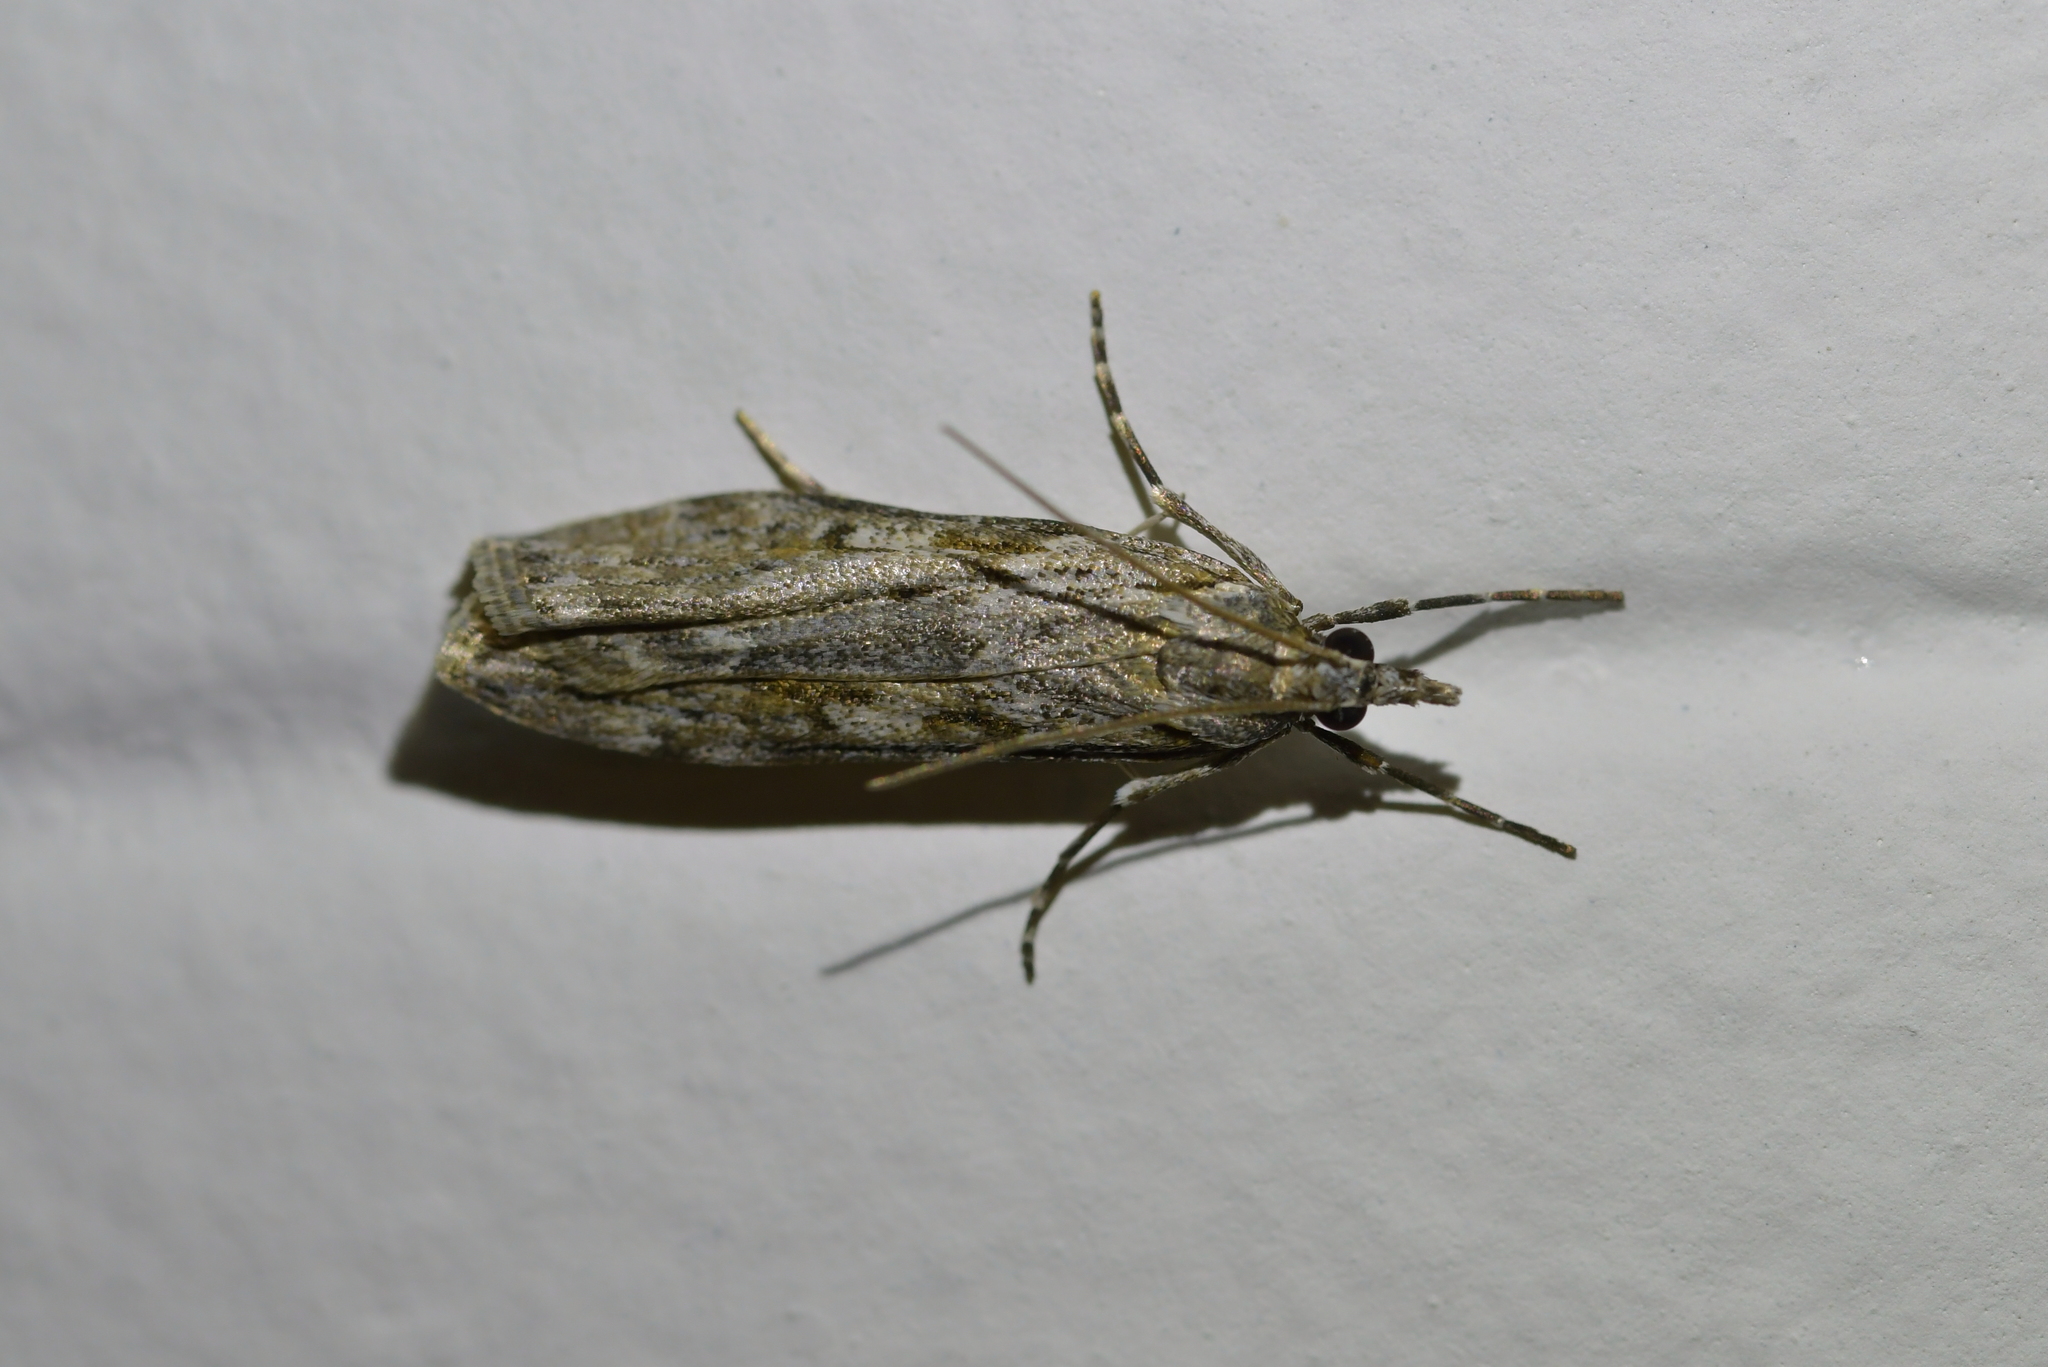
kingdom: Animalia
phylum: Arthropoda
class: Insecta
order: Lepidoptera
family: Crambidae
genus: Scoparia
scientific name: Scoparia halopis
